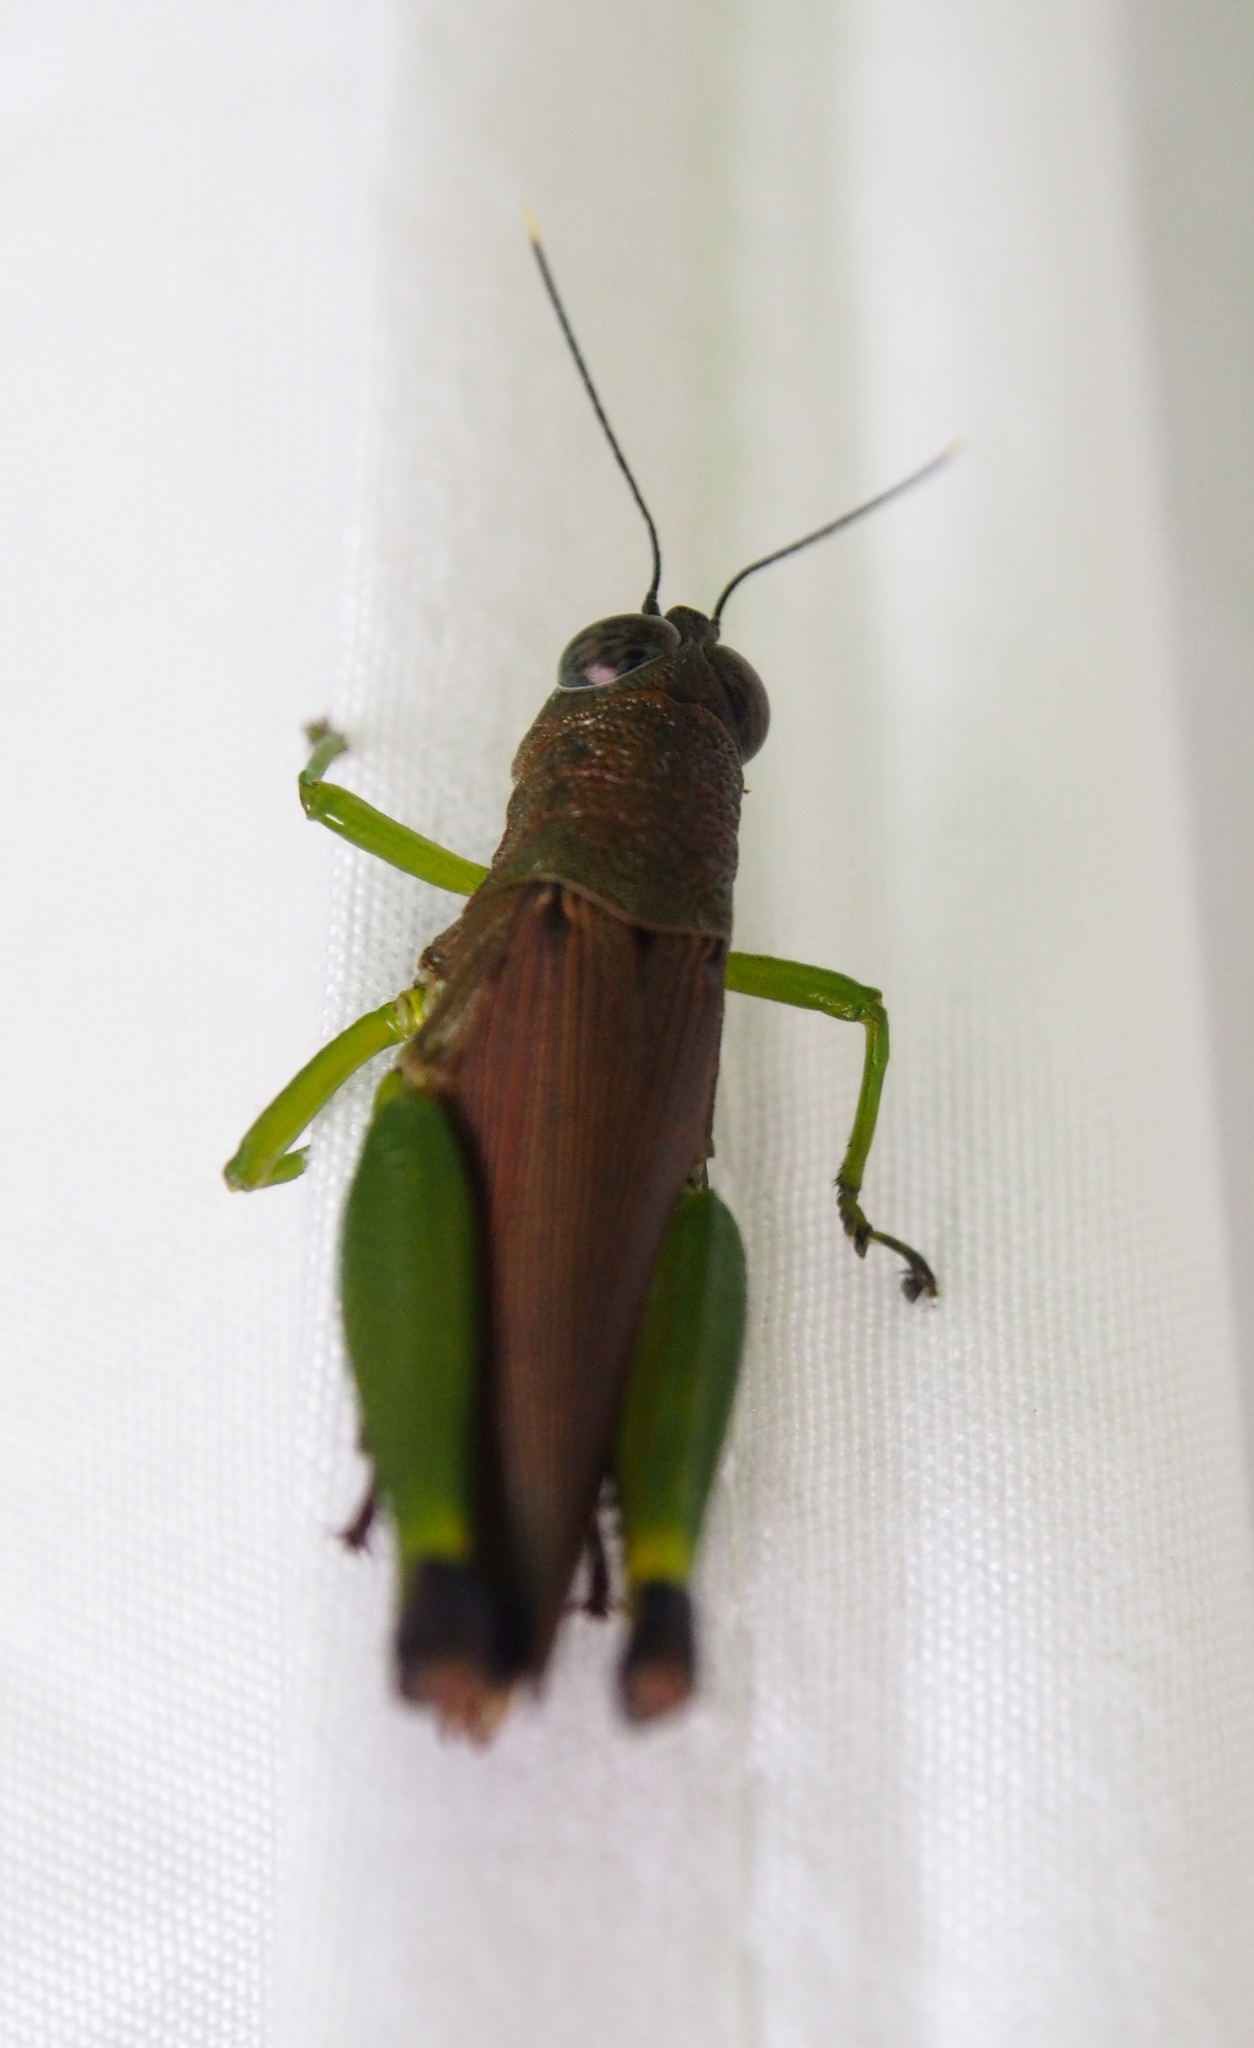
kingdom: Animalia
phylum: Arthropoda
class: Insecta
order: Orthoptera
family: Acrididae
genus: Balachowskyacris
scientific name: Balachowskyacris olivacea
